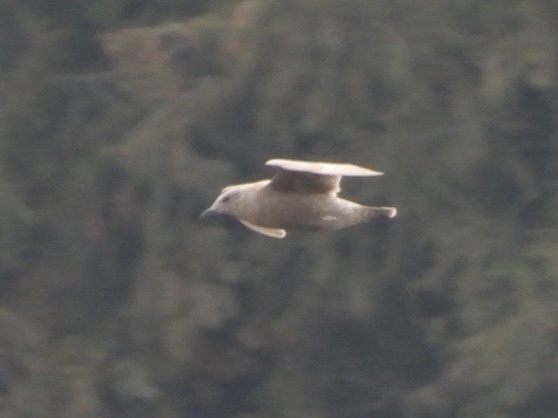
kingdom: Animalia
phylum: Chordata
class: Aves
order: Charadriiformes
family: Laridae
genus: Larus
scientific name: Larus glaucescens
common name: Glaucous-winged gull
